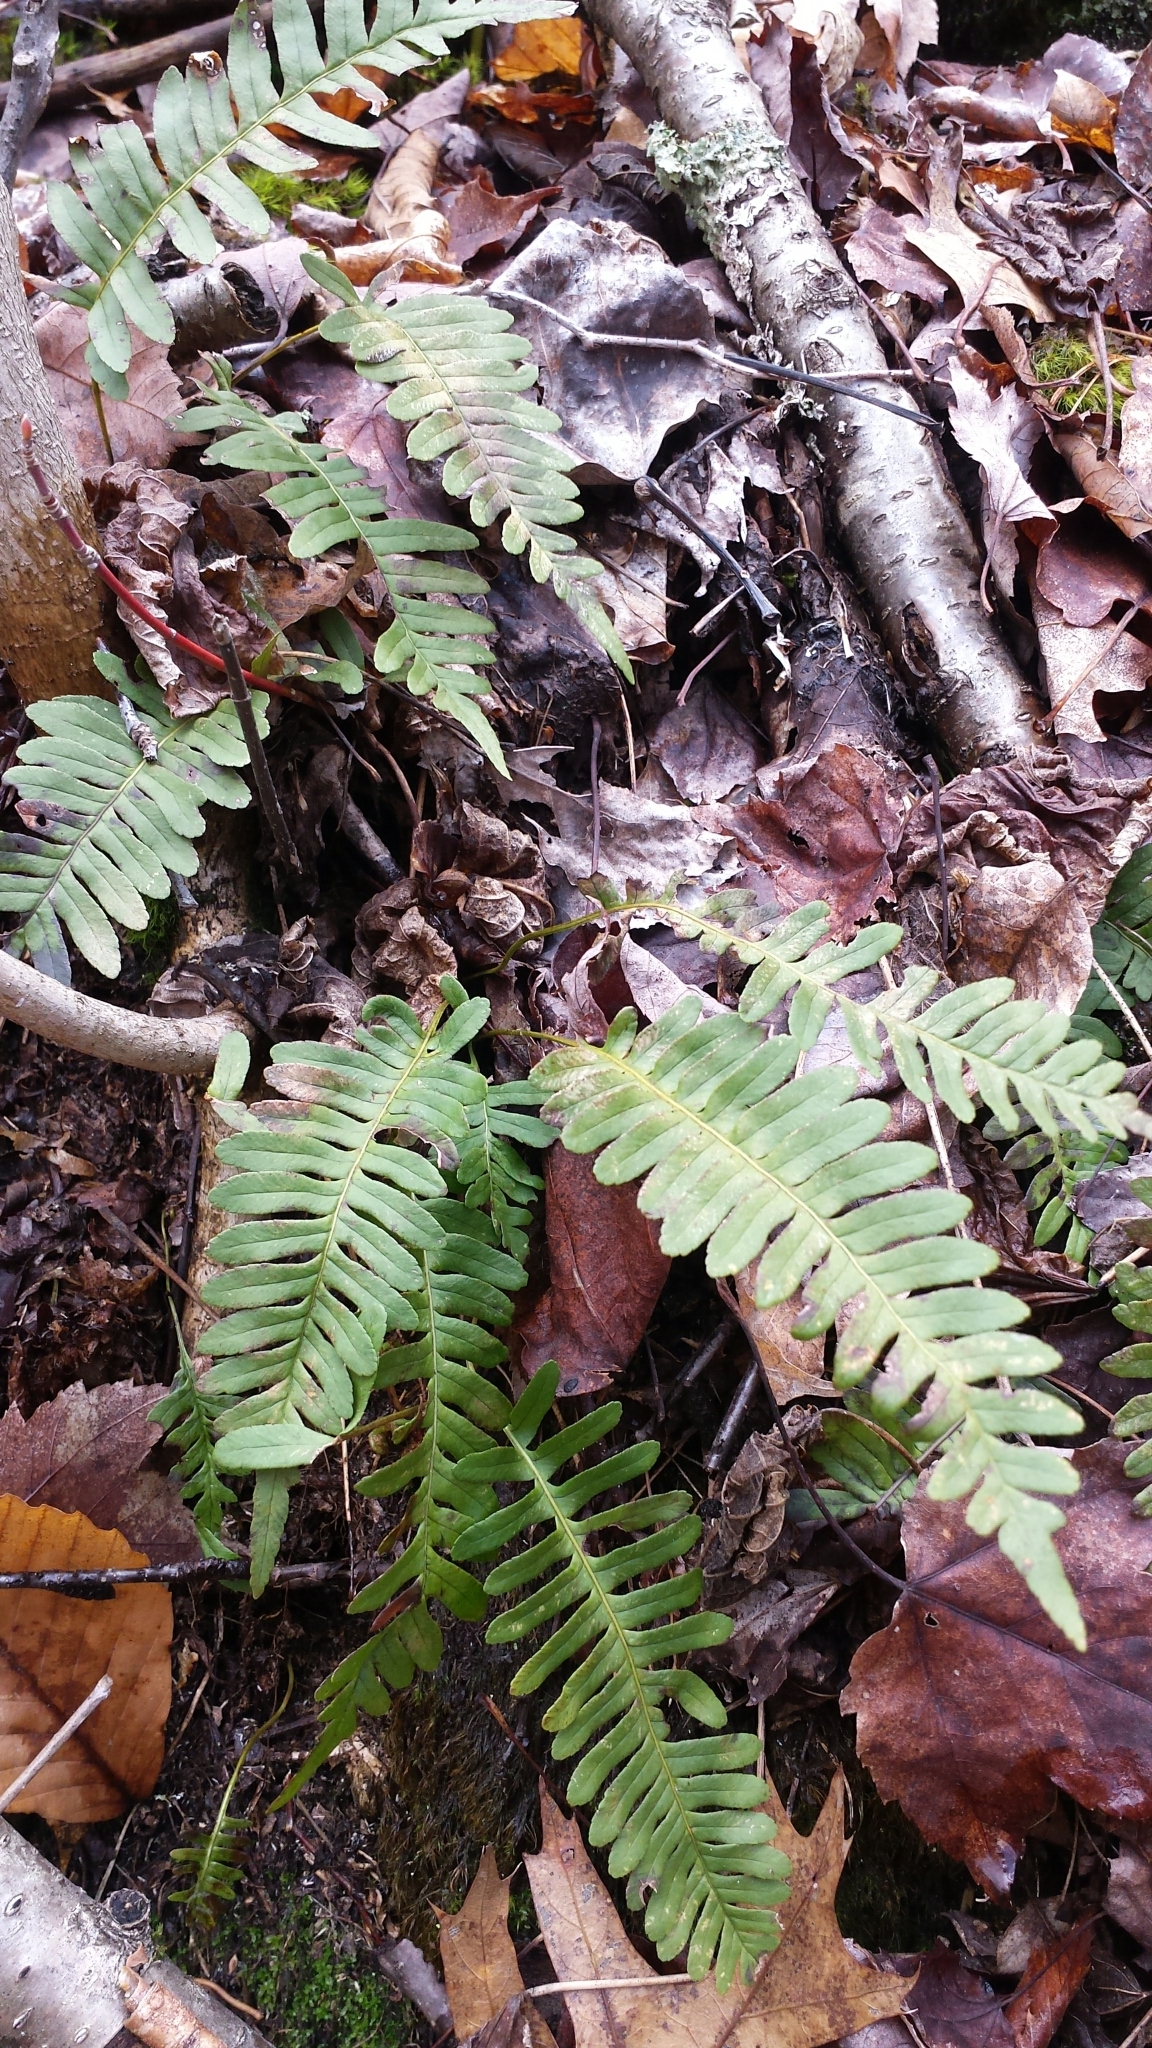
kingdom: Plantae
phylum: Tracheophyta
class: Polypodiopsida
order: Polypodiales
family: Polypodiaceae
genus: Polypodium
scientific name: Polypodium virginianum
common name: American wall fern
